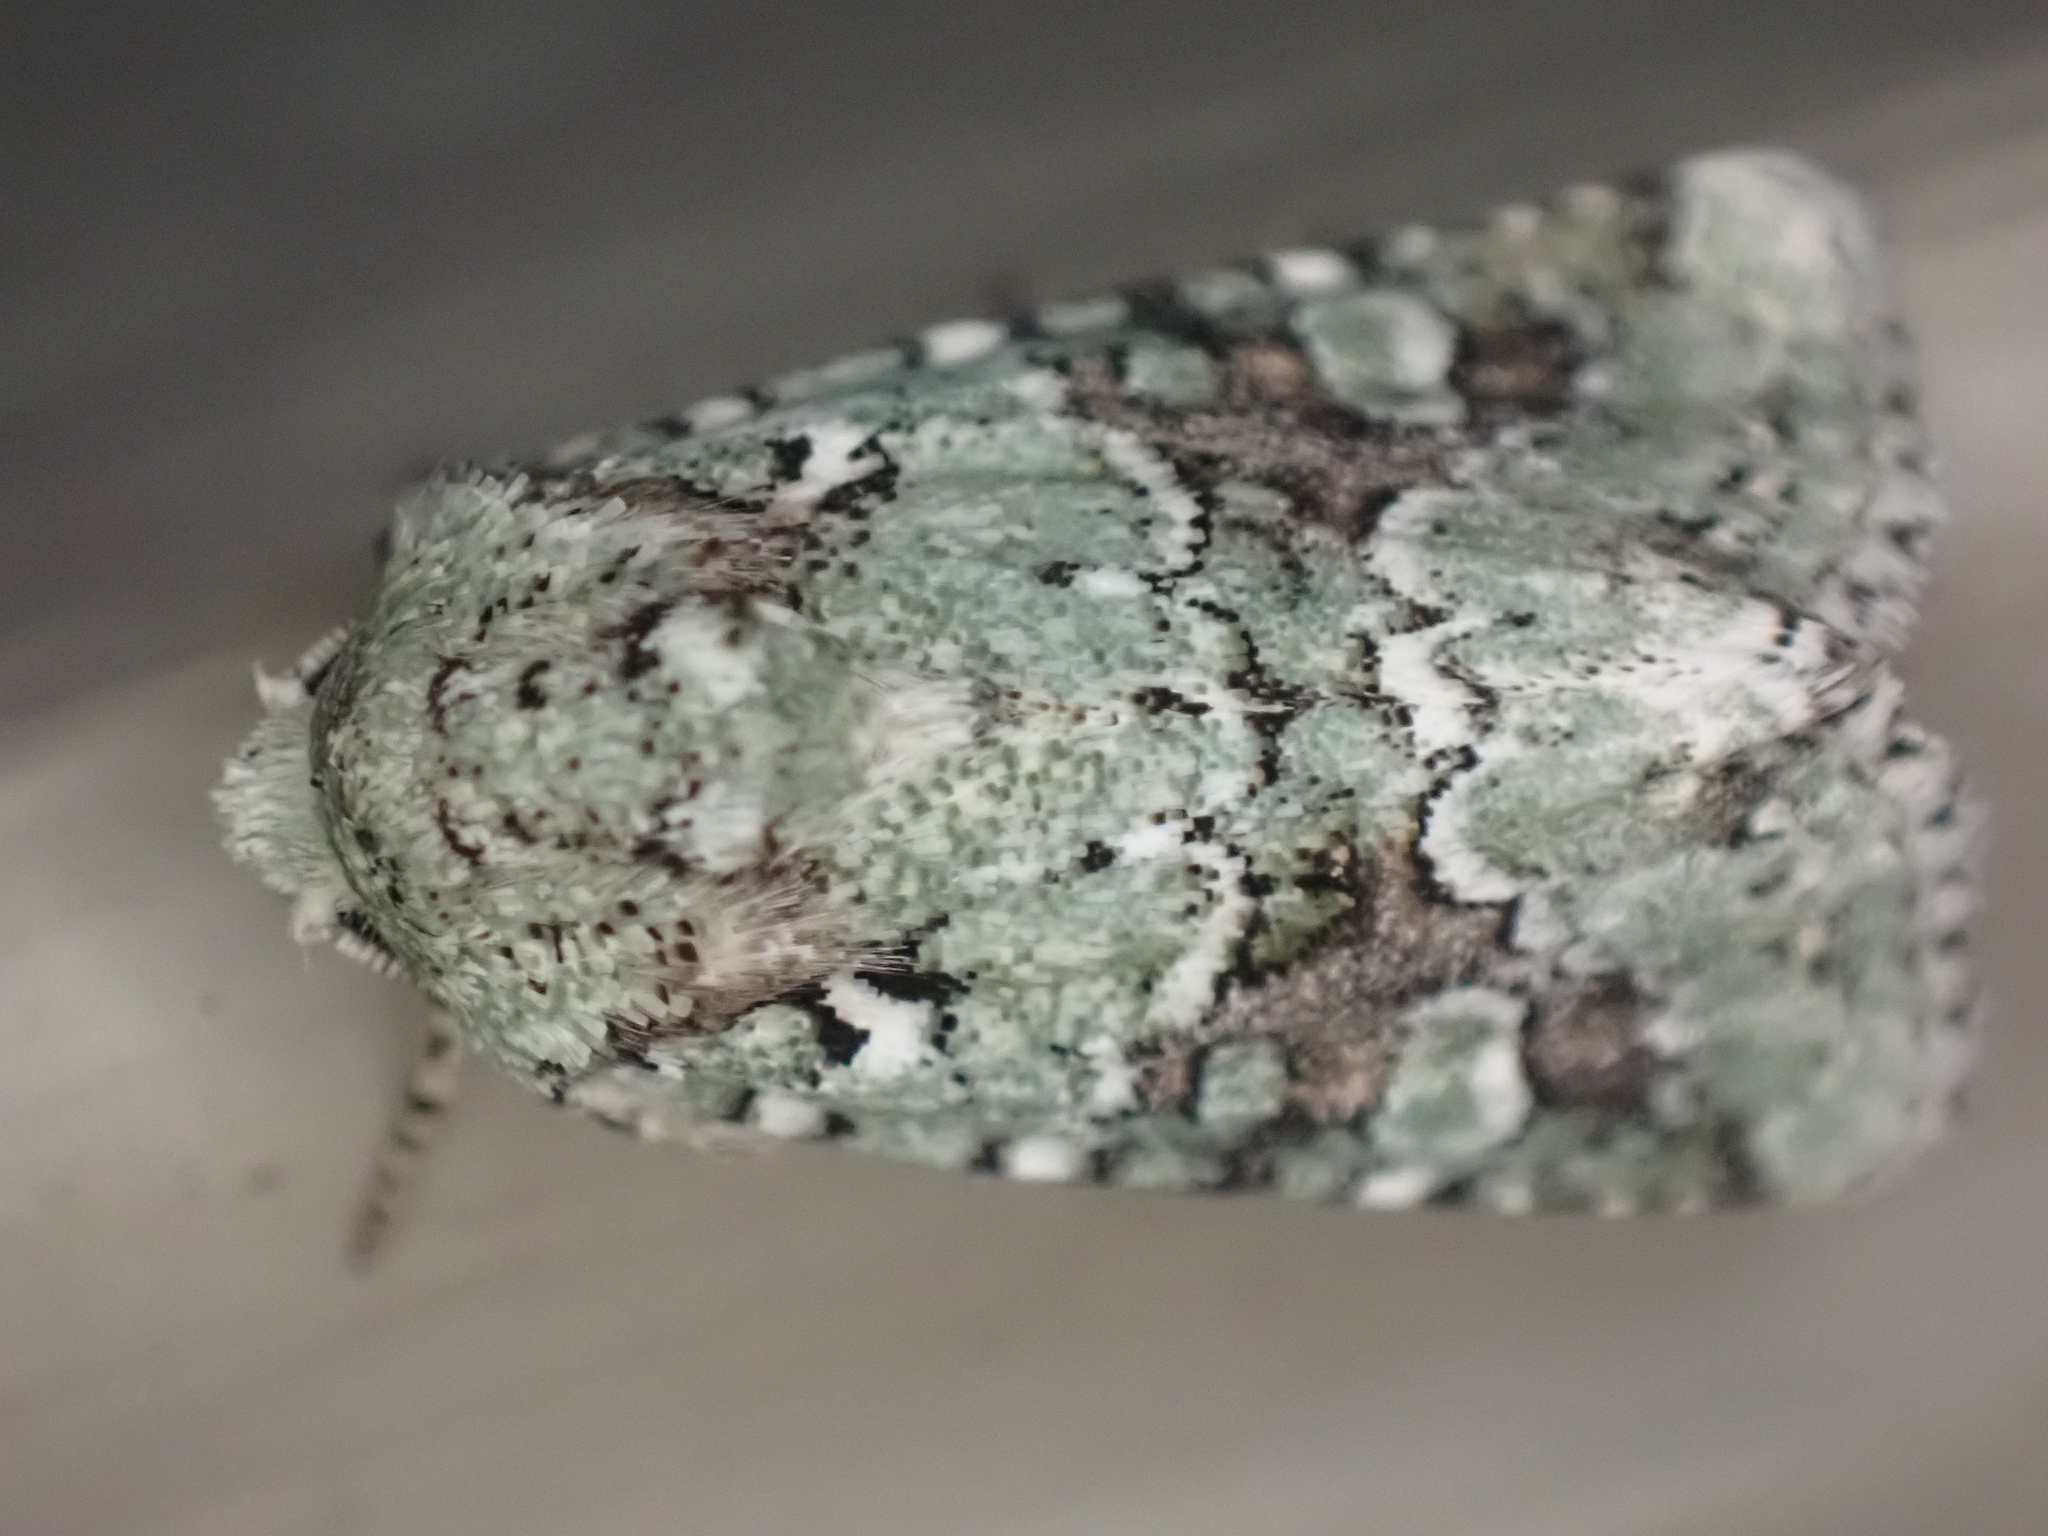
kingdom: Animalia
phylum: Arthropoda
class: Insecta
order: Lepidoptera
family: Noctuidae
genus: Lacinipolia
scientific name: Lacinipolia laudabilis
